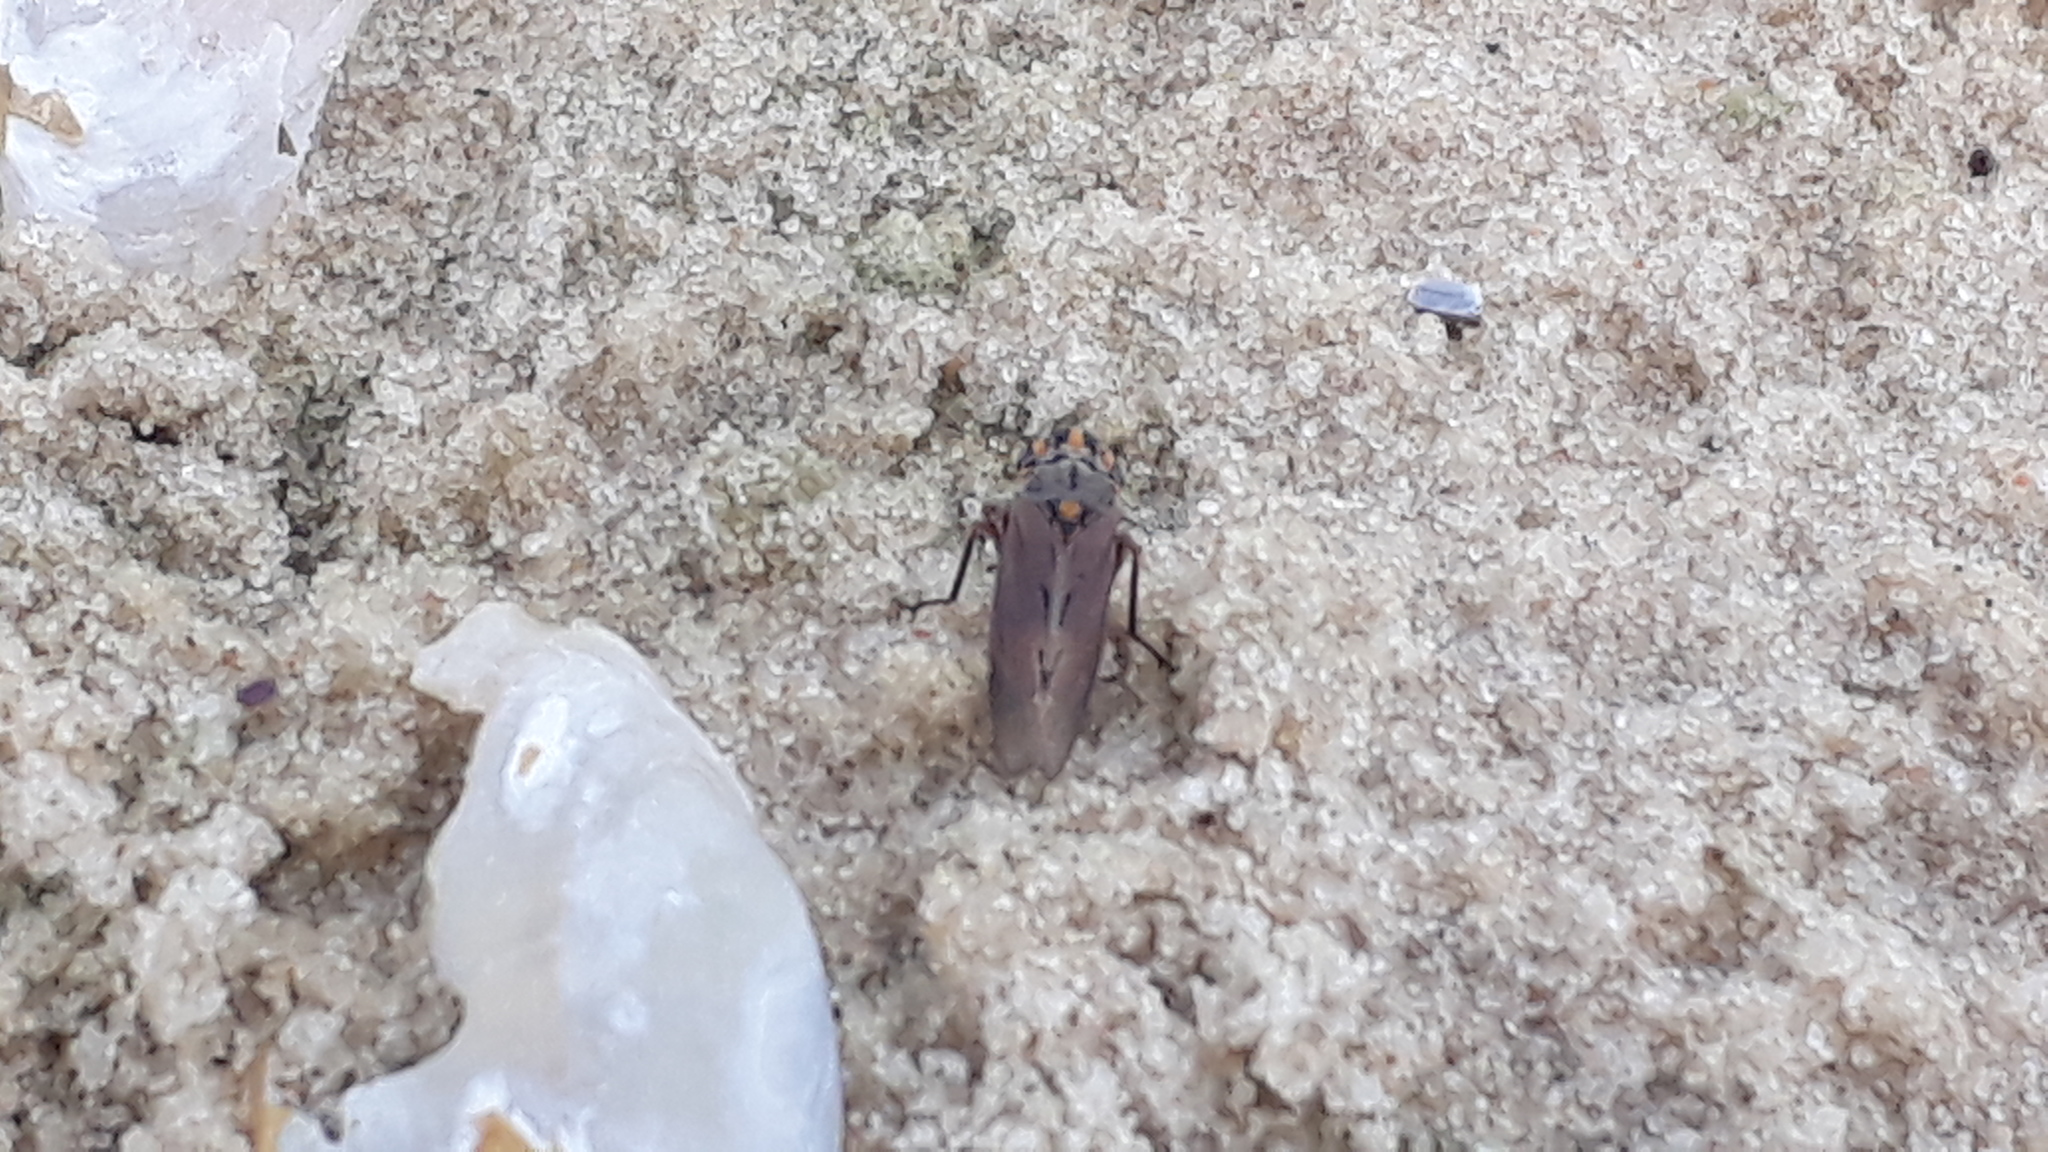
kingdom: Animalia
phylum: Arthropoda
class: Insecta
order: Hemiptera
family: Cicadellidae
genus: Dechacona
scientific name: Dechacona missionum
